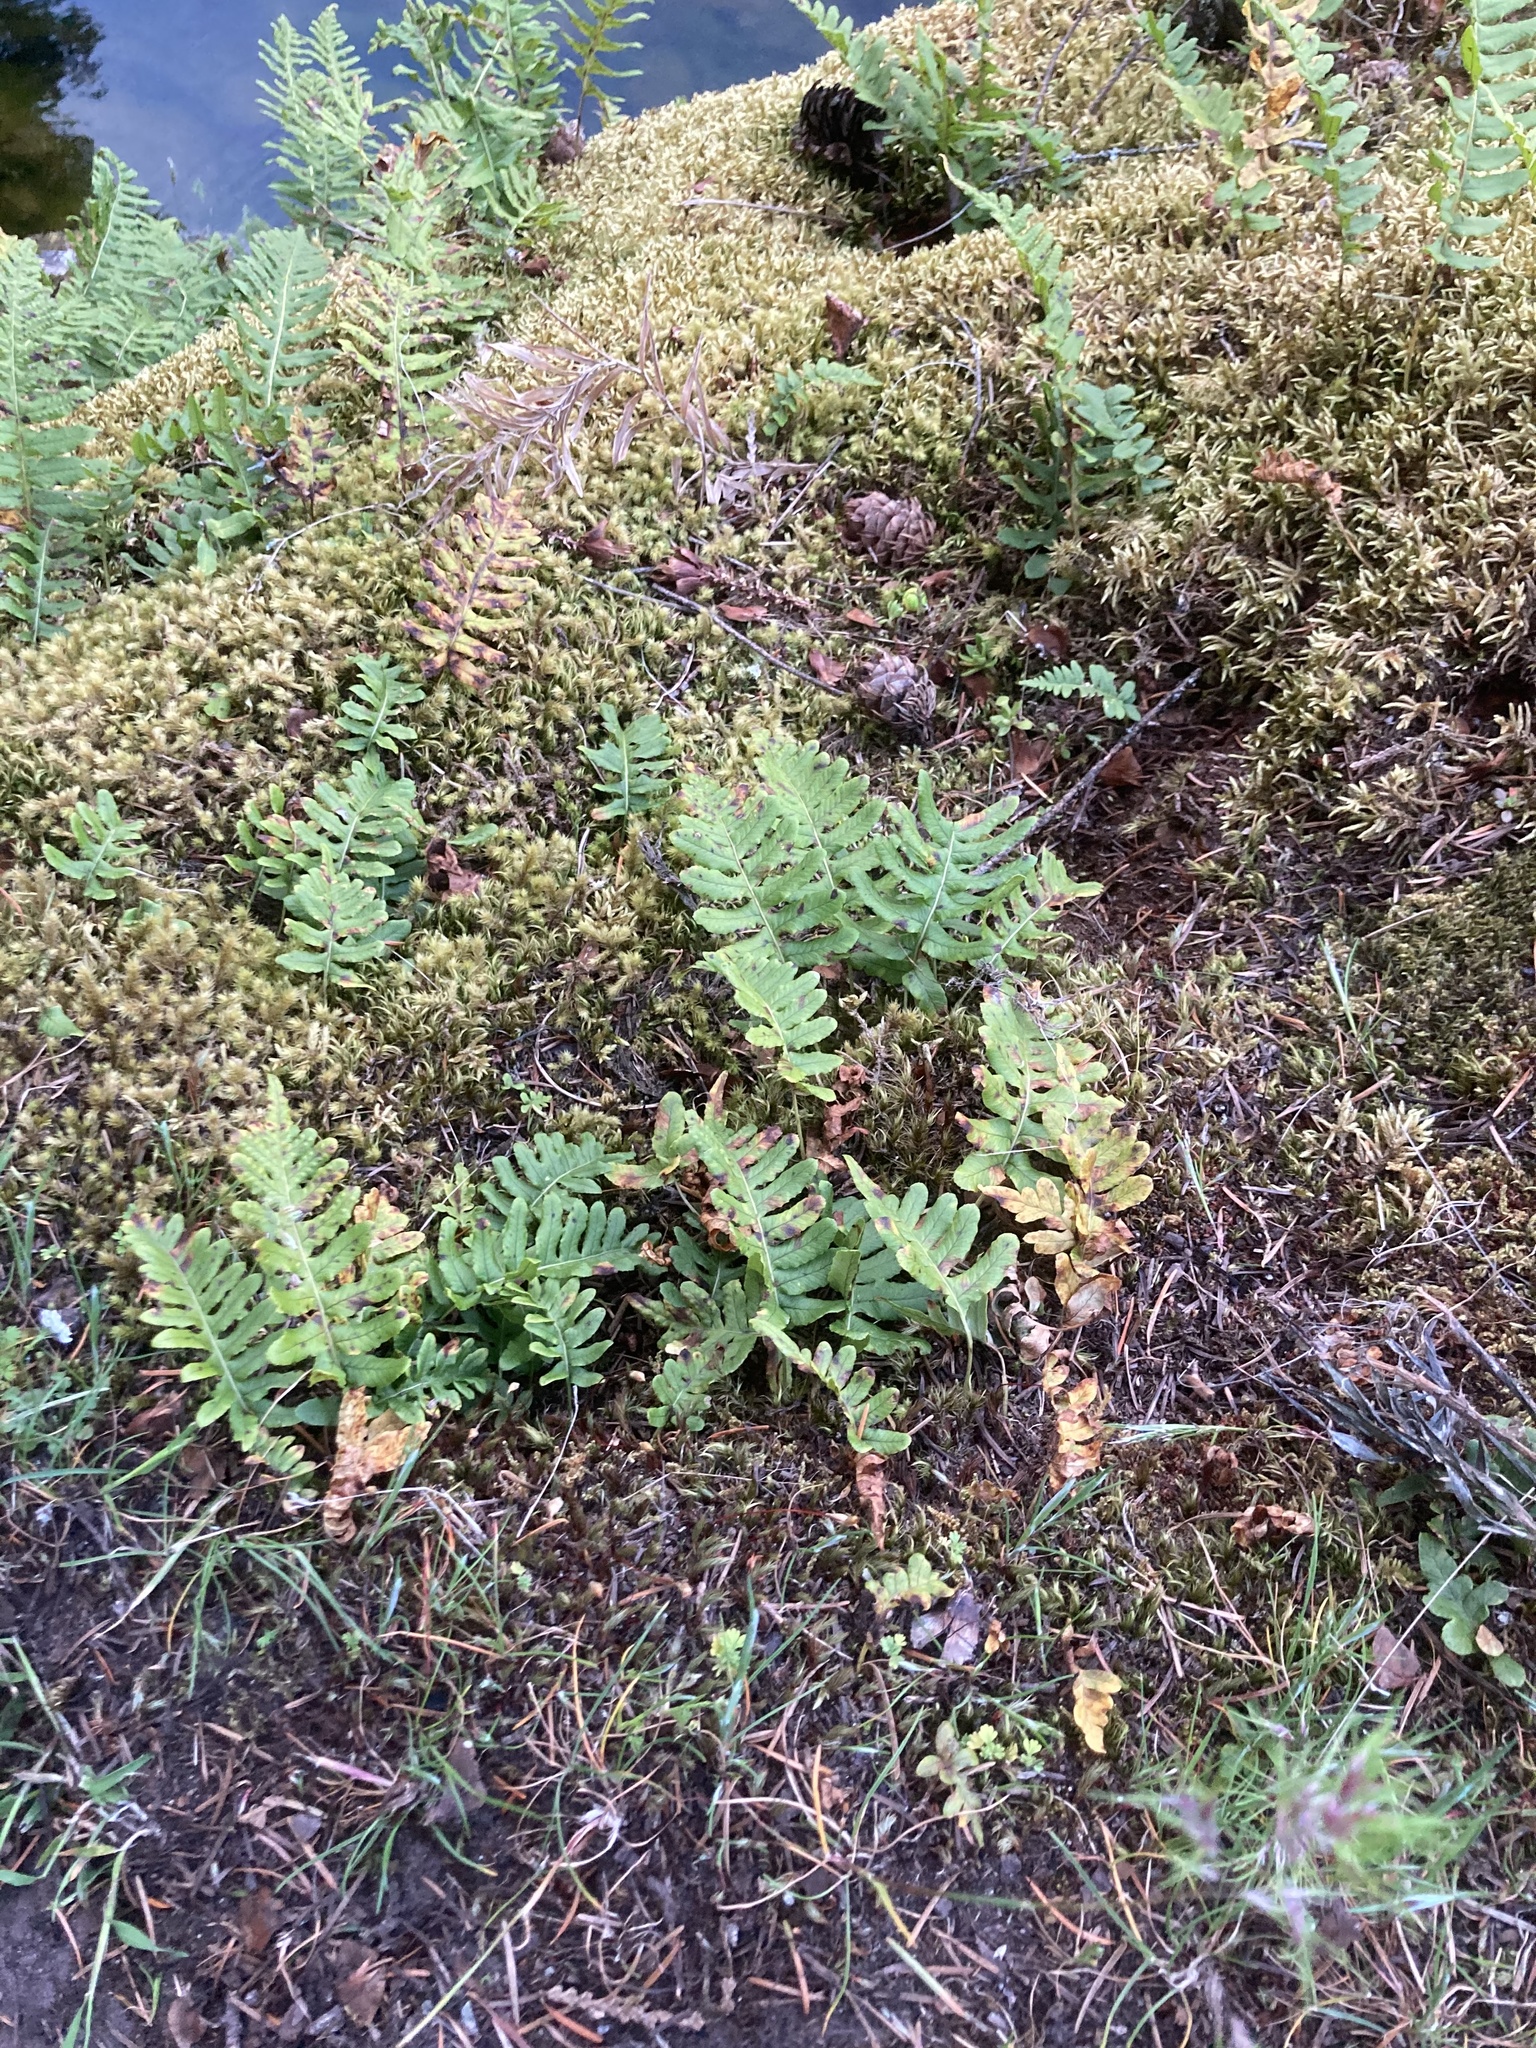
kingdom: Plantae
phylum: Tracheophyta
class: Polypodiopsida
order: Polypodiales
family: Polypodiaceae
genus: Polypodium
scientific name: Polypodium glycyrrhiza
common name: Licorice fern
